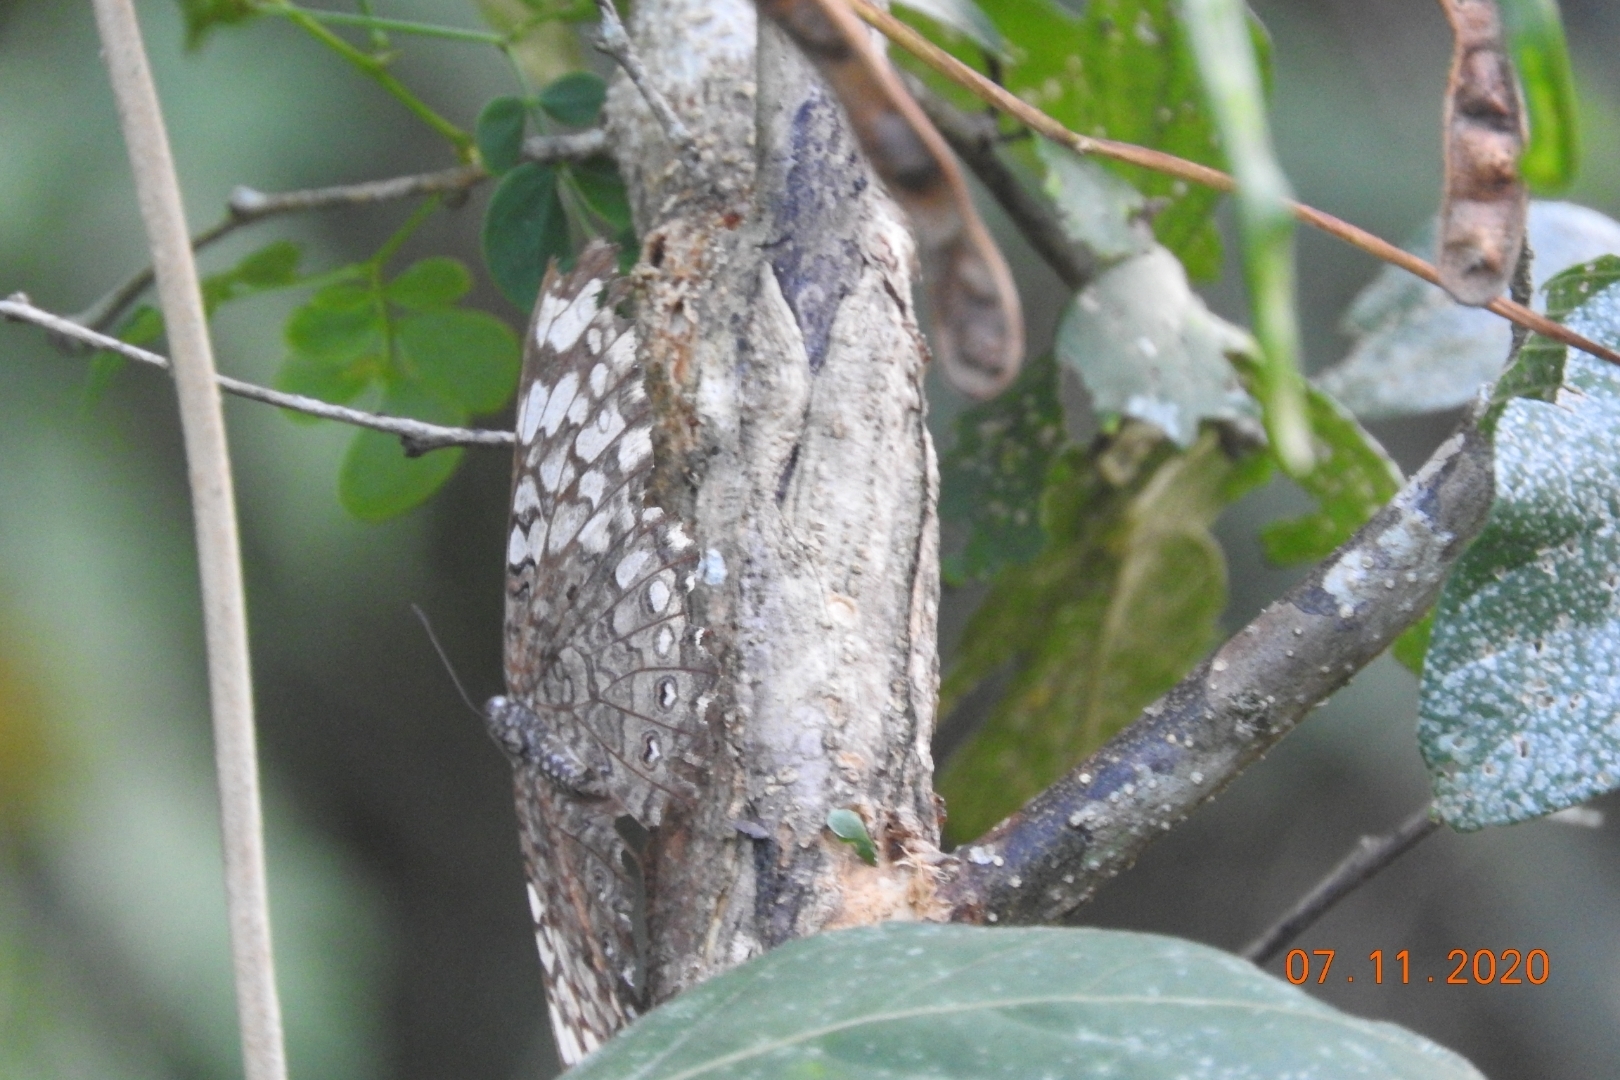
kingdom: Animalia
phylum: Arthropoda
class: Insecta
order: Lepidoptera
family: Nymphalidae
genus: Hamadryas
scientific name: Hamadryas februa
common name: Gray cracker
